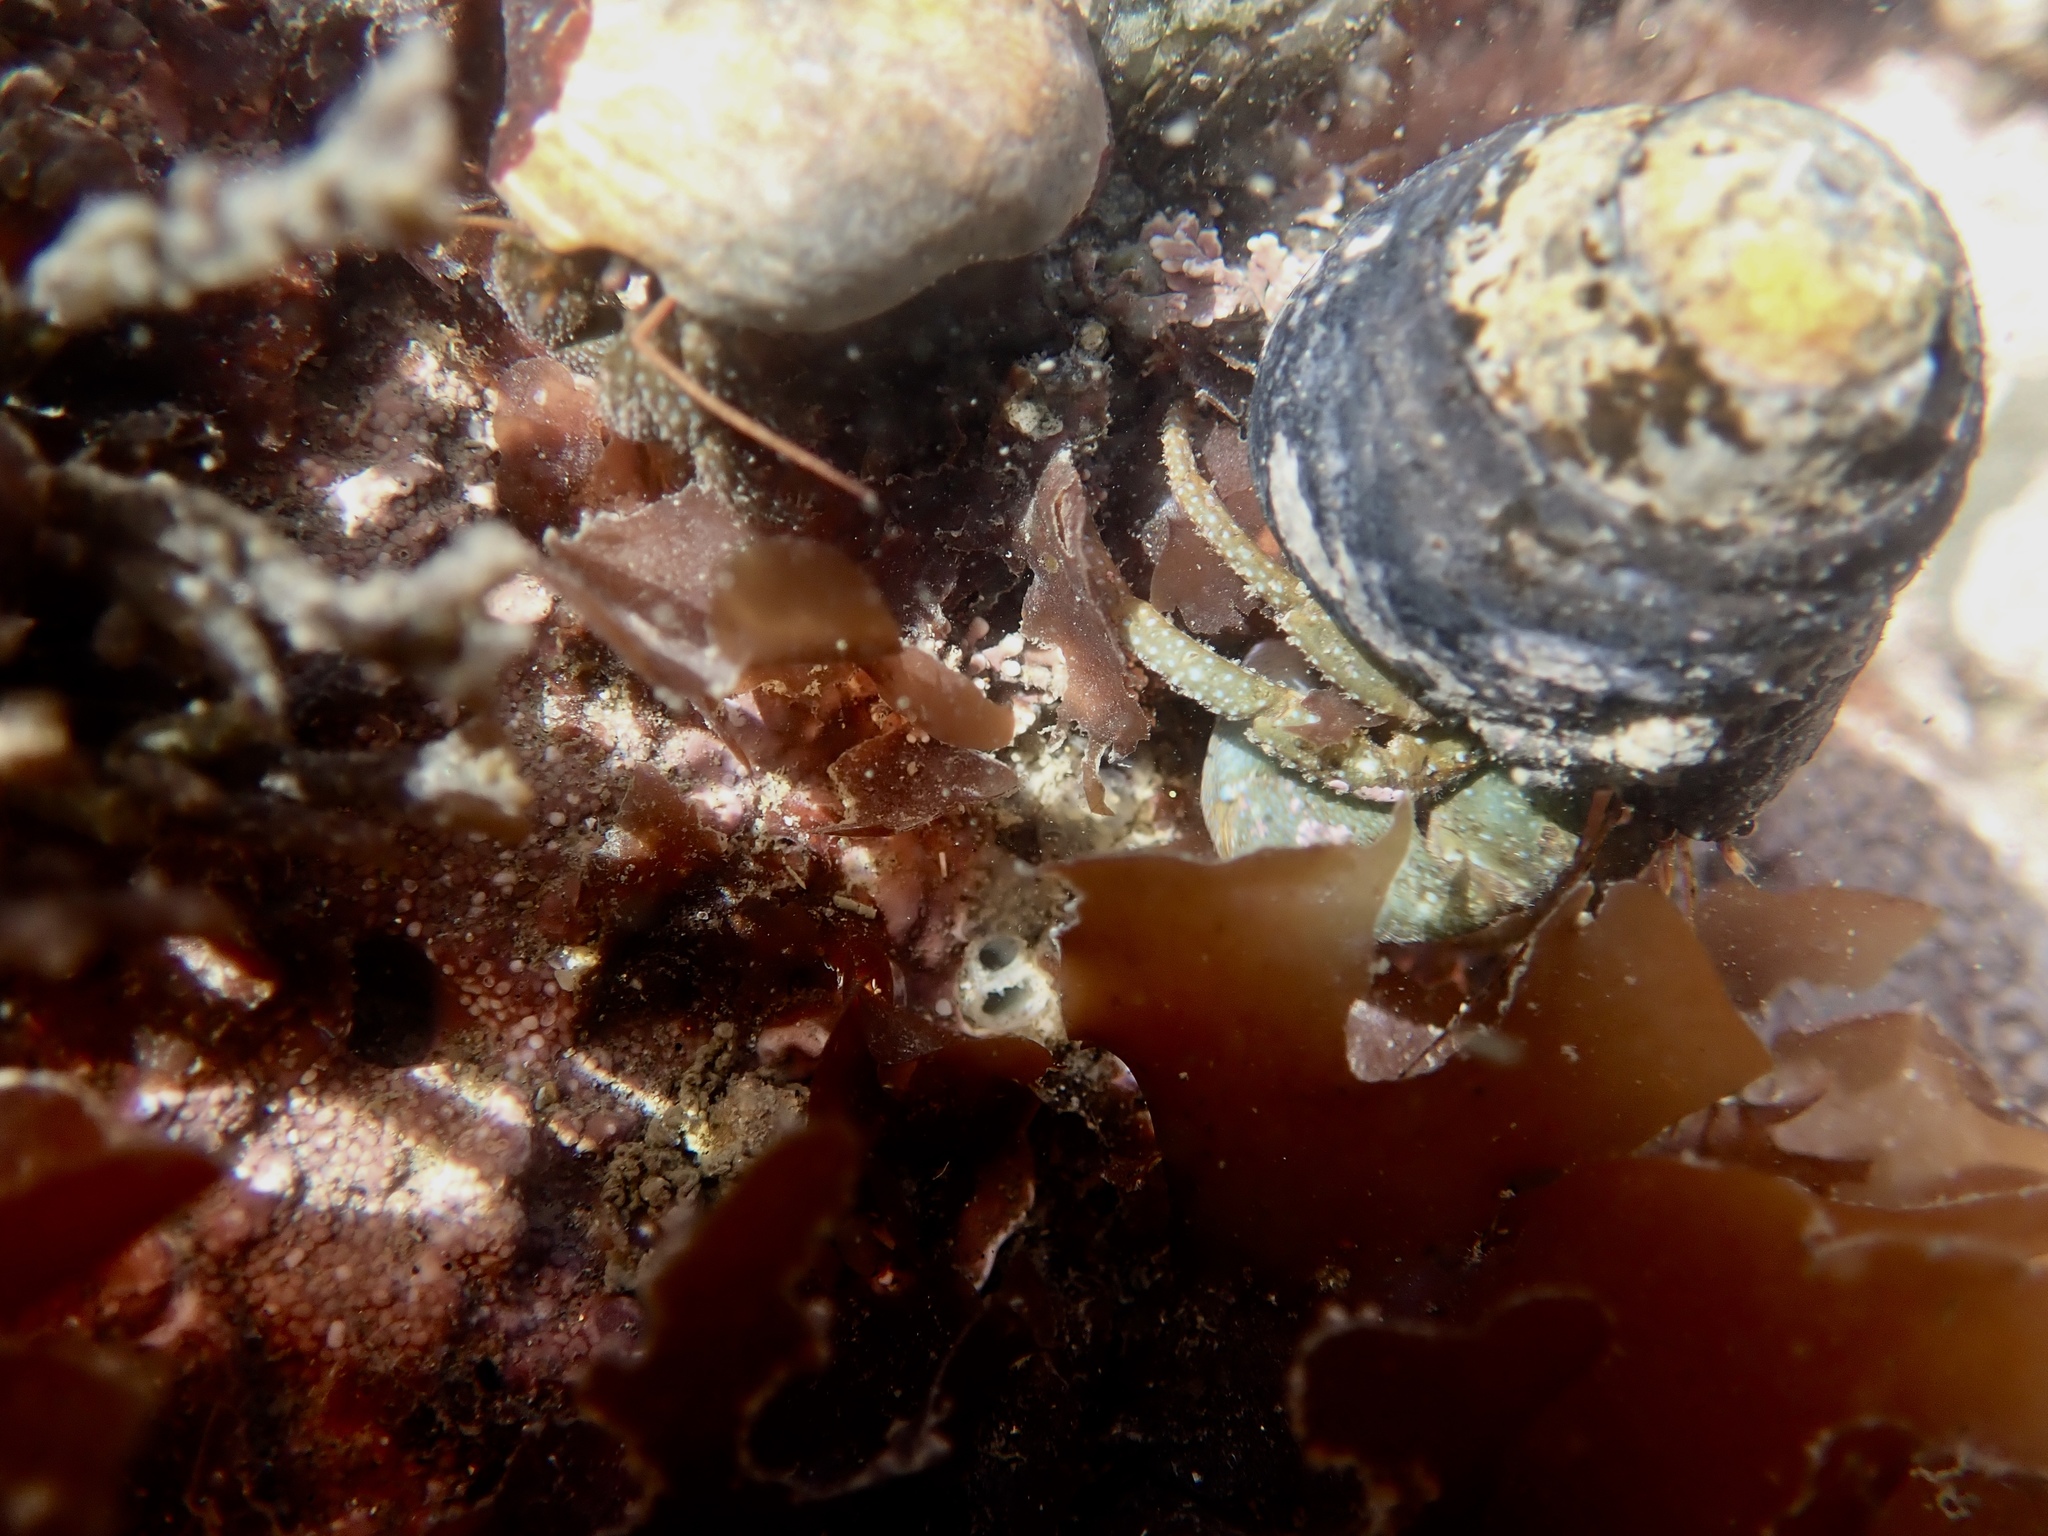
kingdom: Animalia
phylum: Arthropoda
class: Malacostraca
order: Decapoda
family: Paguridae
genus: Pagurus
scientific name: Pagurus granosimanus
